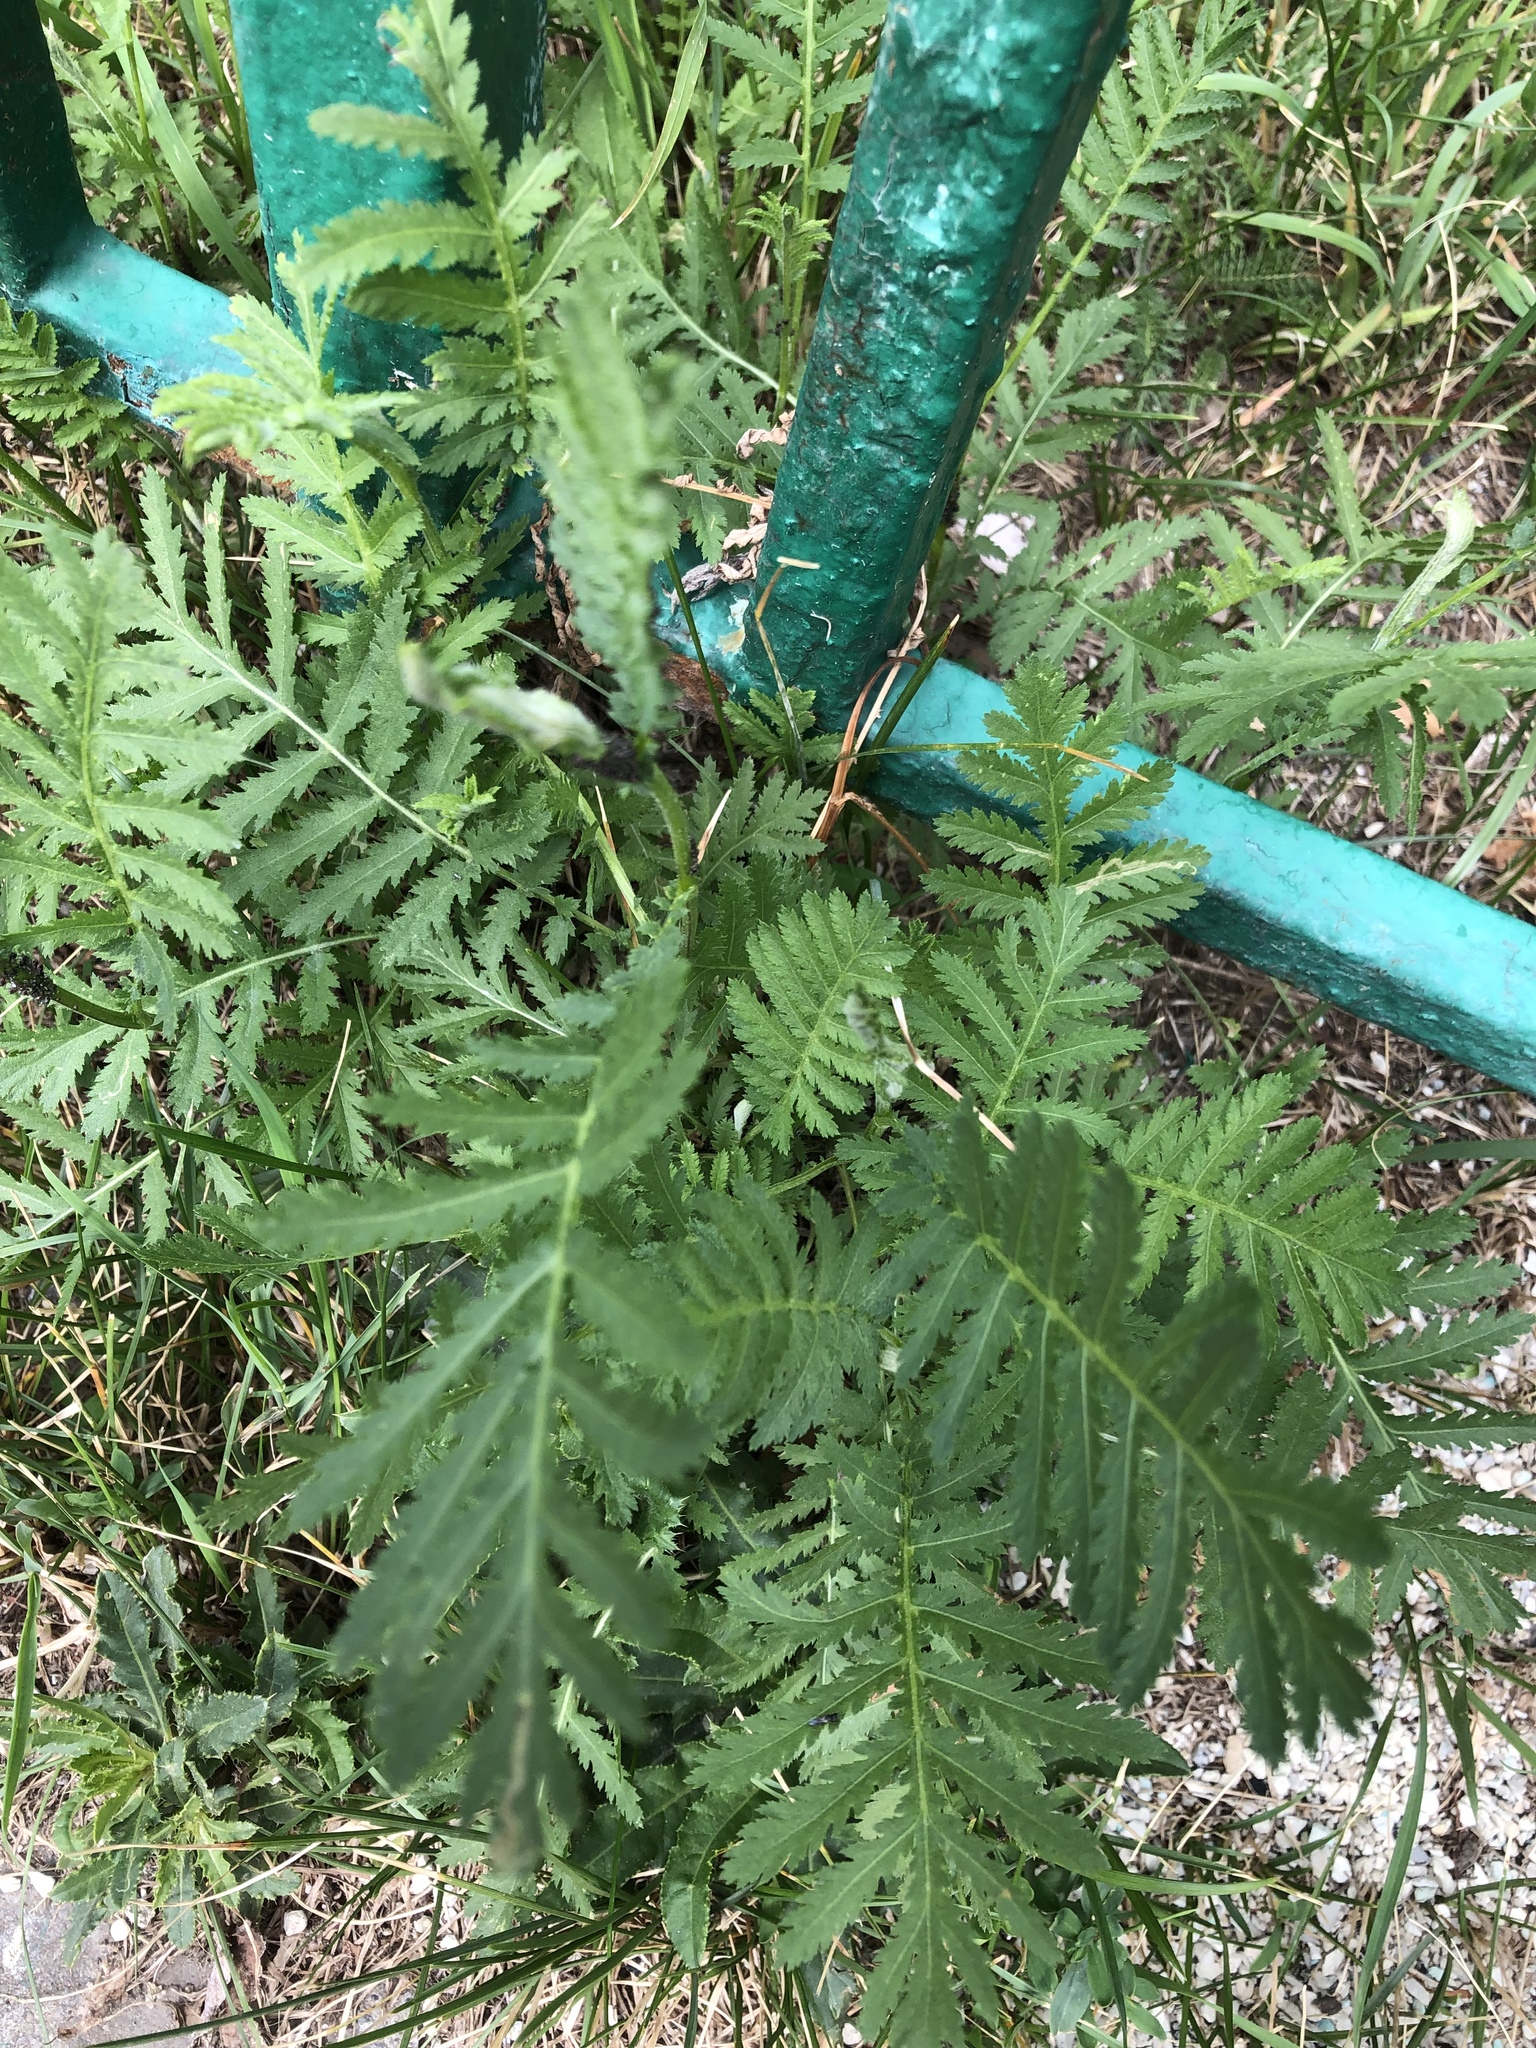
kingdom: Plantae
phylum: Tracheophyta
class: Magnoliopsida
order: Asterales
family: Asteraceae
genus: Tanacetum
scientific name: Tanacetum vulgare
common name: Common tansy
